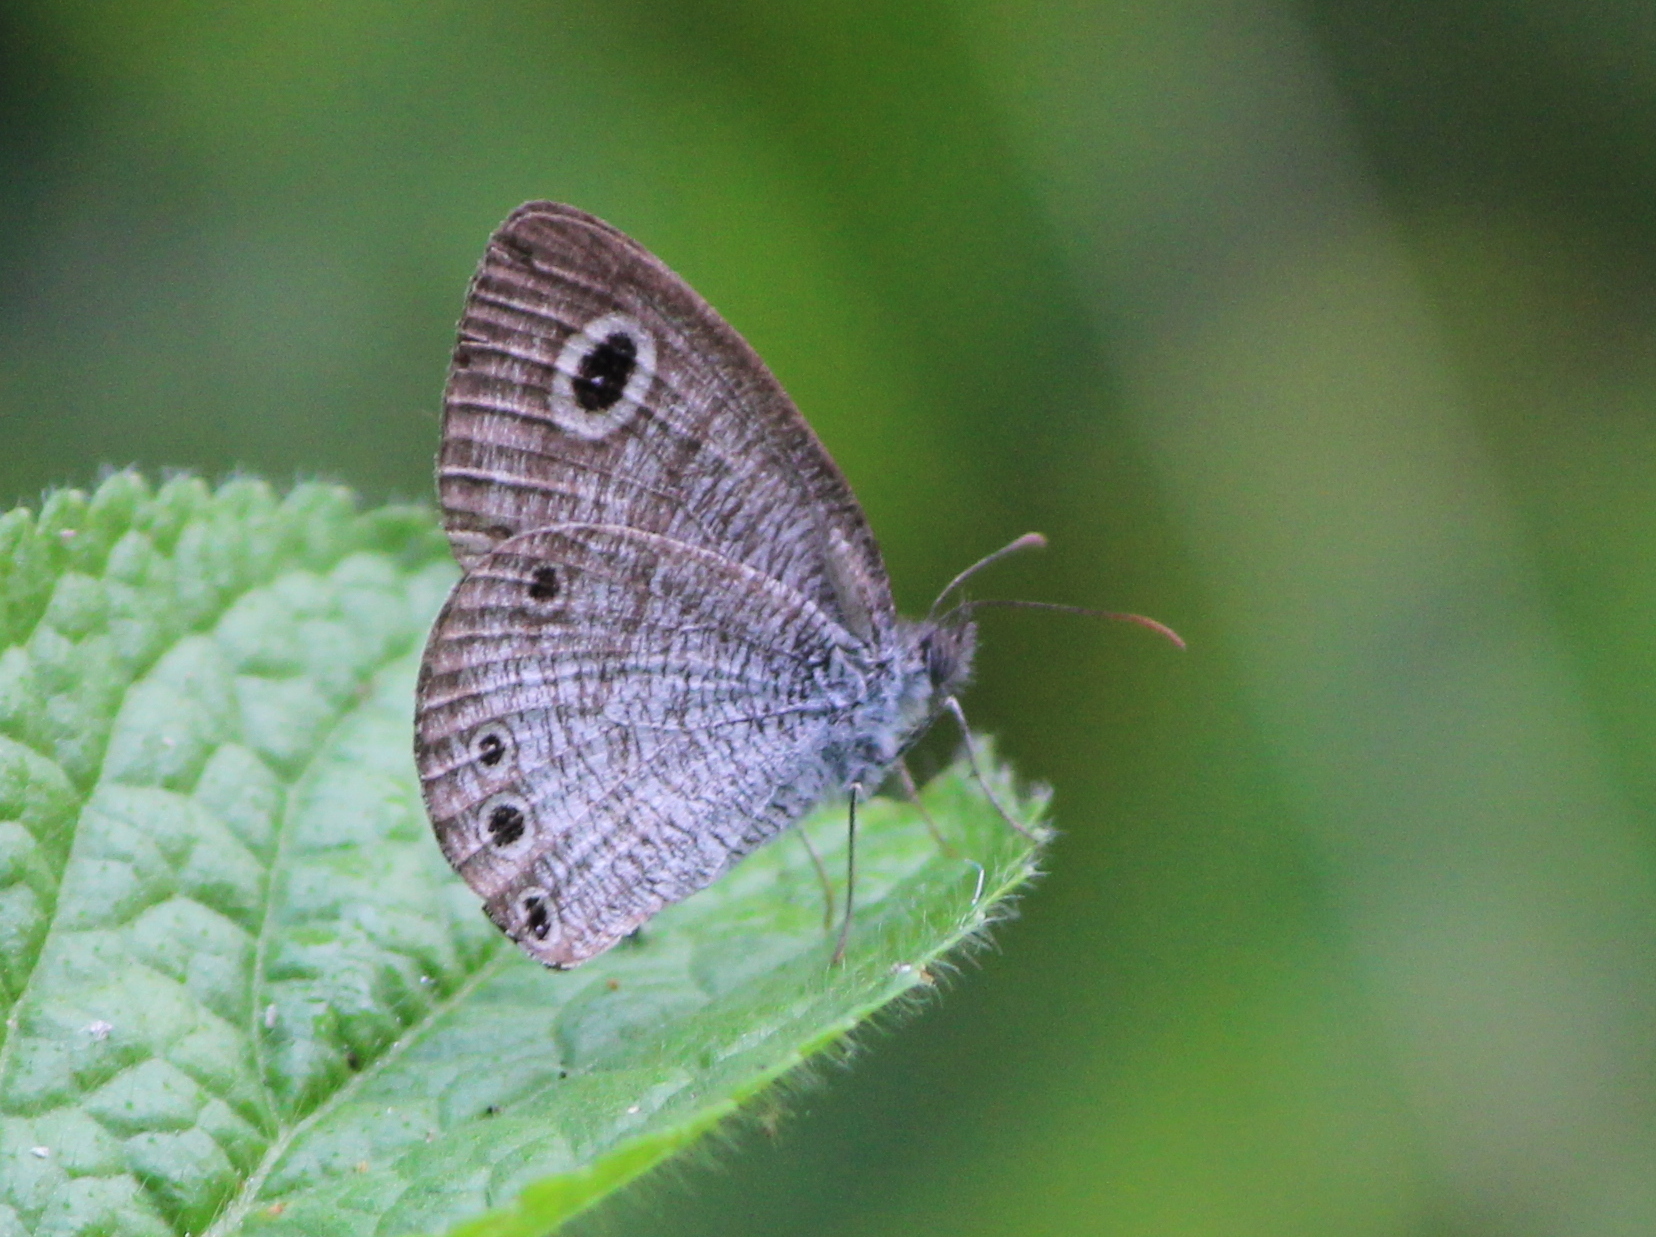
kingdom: Animalia
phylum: Arthropoda
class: Insecta
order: Lepidoptera
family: Nymphalidae
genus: Ypthima
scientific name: Ypthima huebneri
